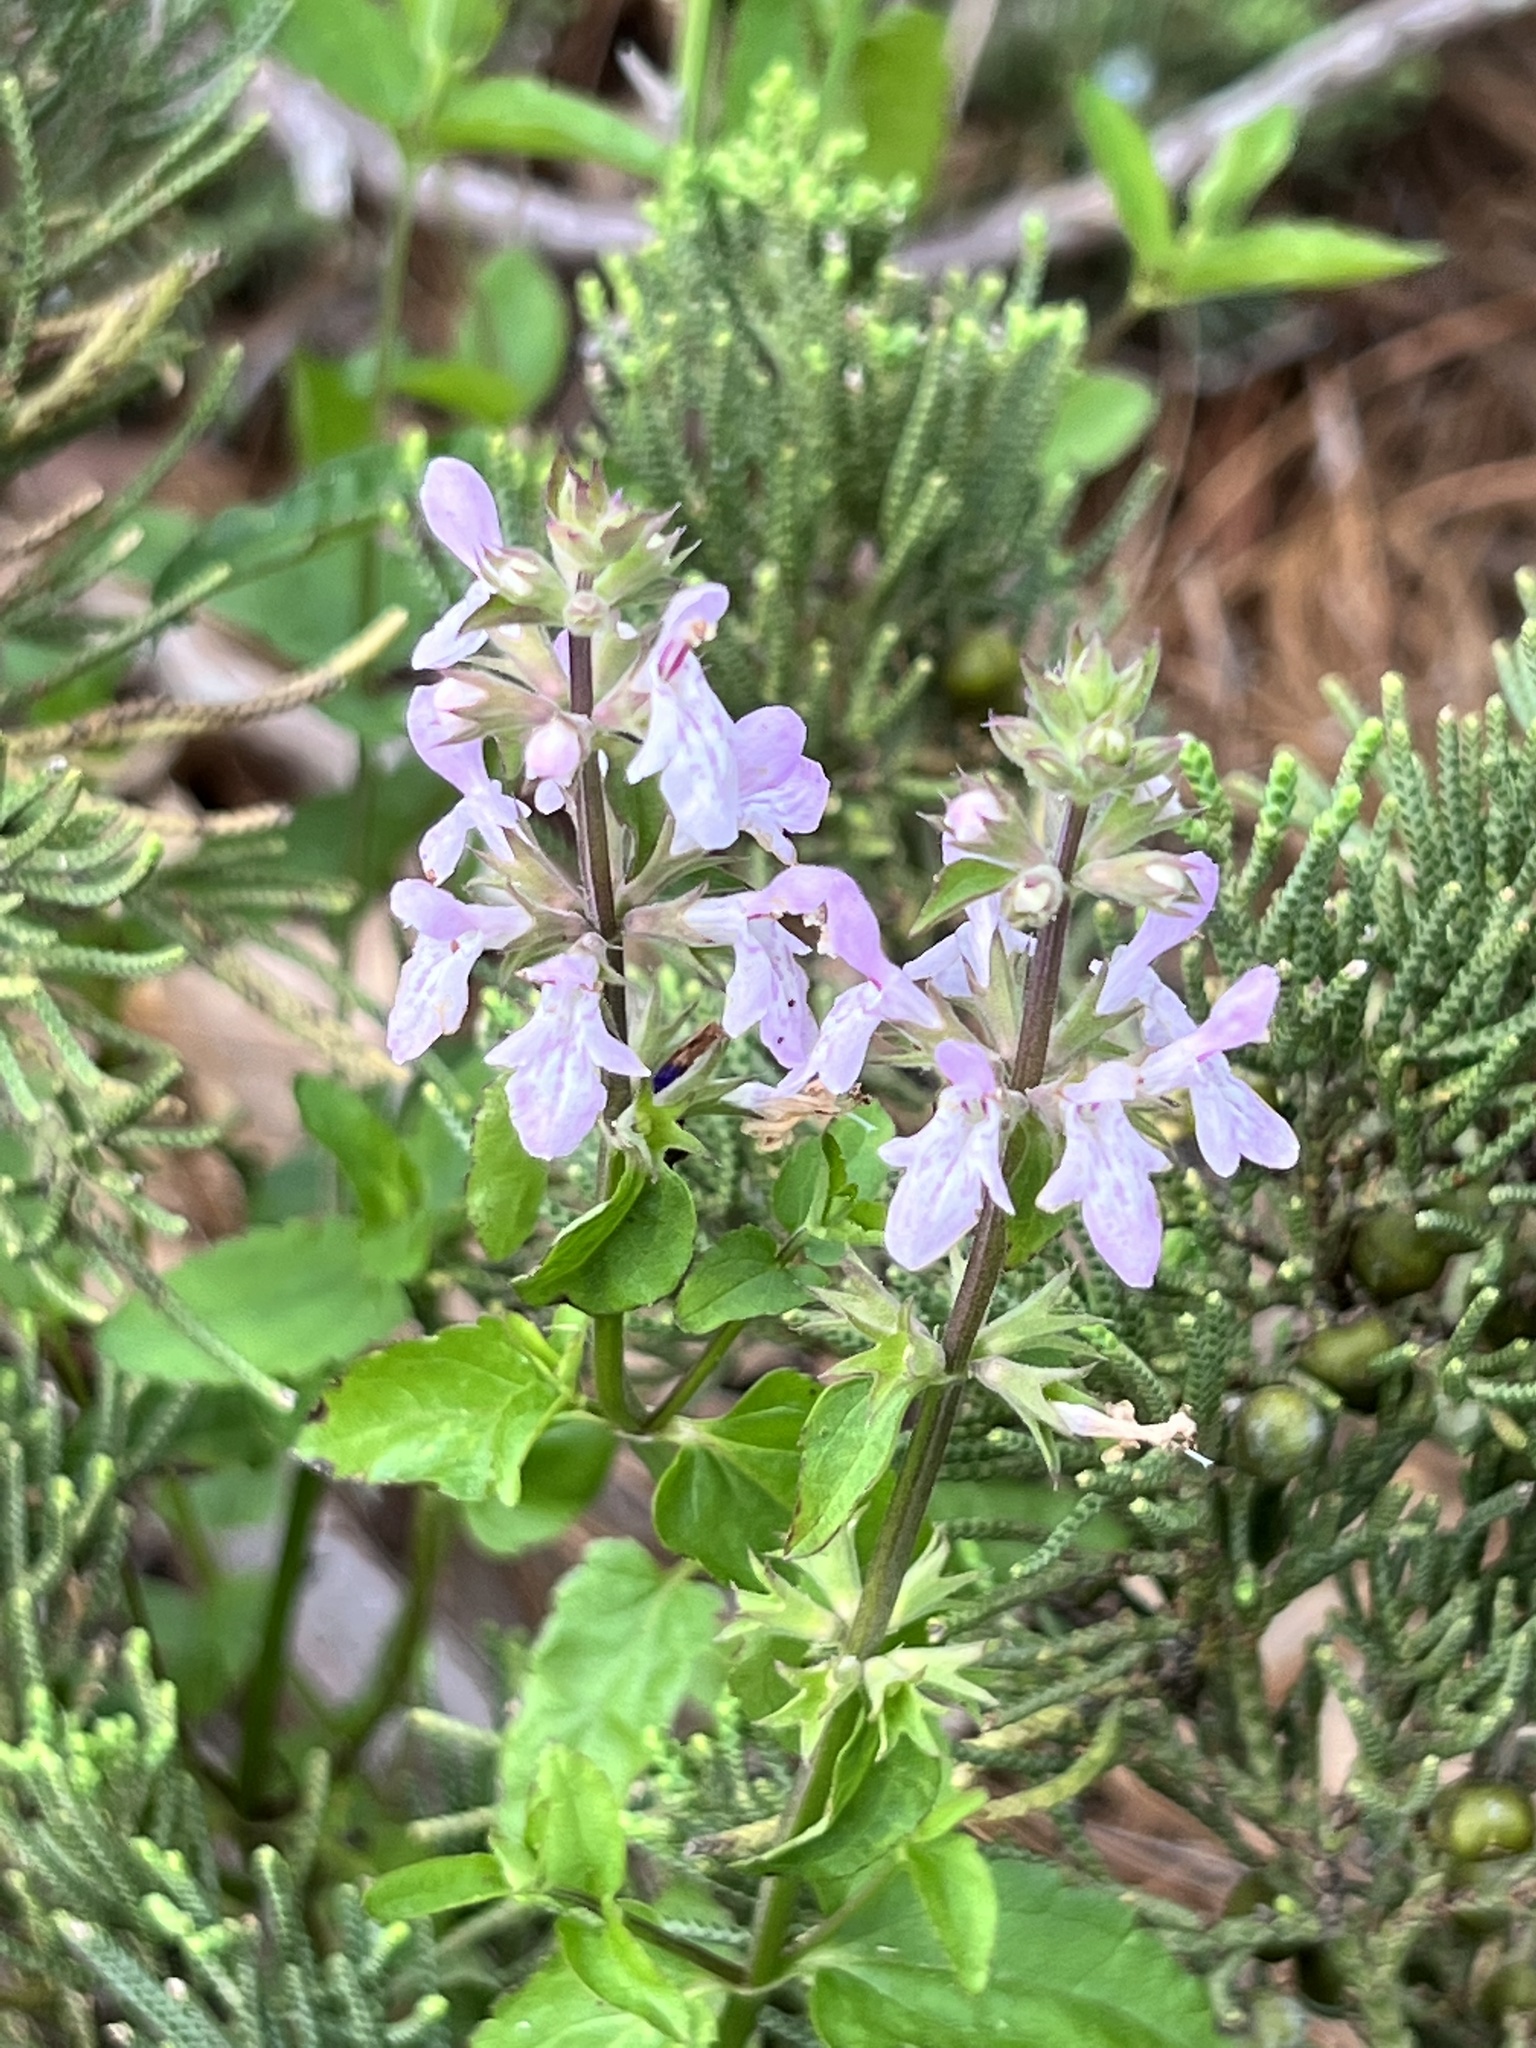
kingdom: Plantae
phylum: Tracheophyta
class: Magnoliopsida
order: Lamiales
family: Lamiaceae
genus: Stachys
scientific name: Stachys floridana
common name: Florida betony
